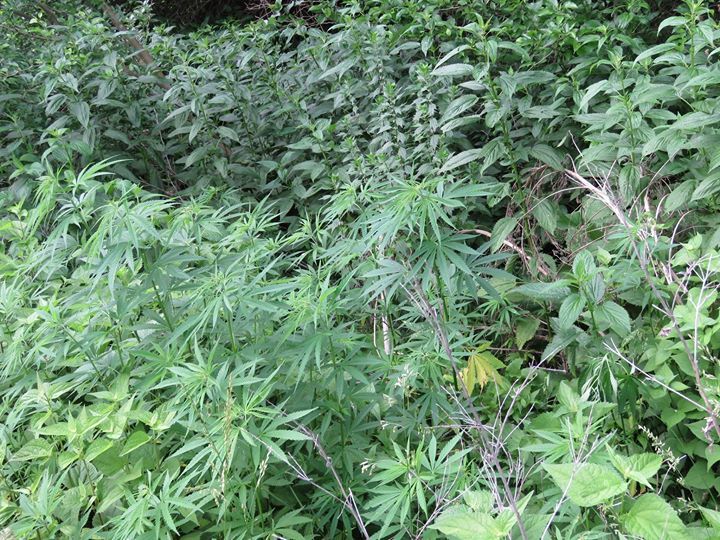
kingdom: Plantae
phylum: Tracheophyta
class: Magnoliopsida
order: Rosales
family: Cannabaceae
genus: Cannabis
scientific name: Cannabis sativa
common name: Hemp
